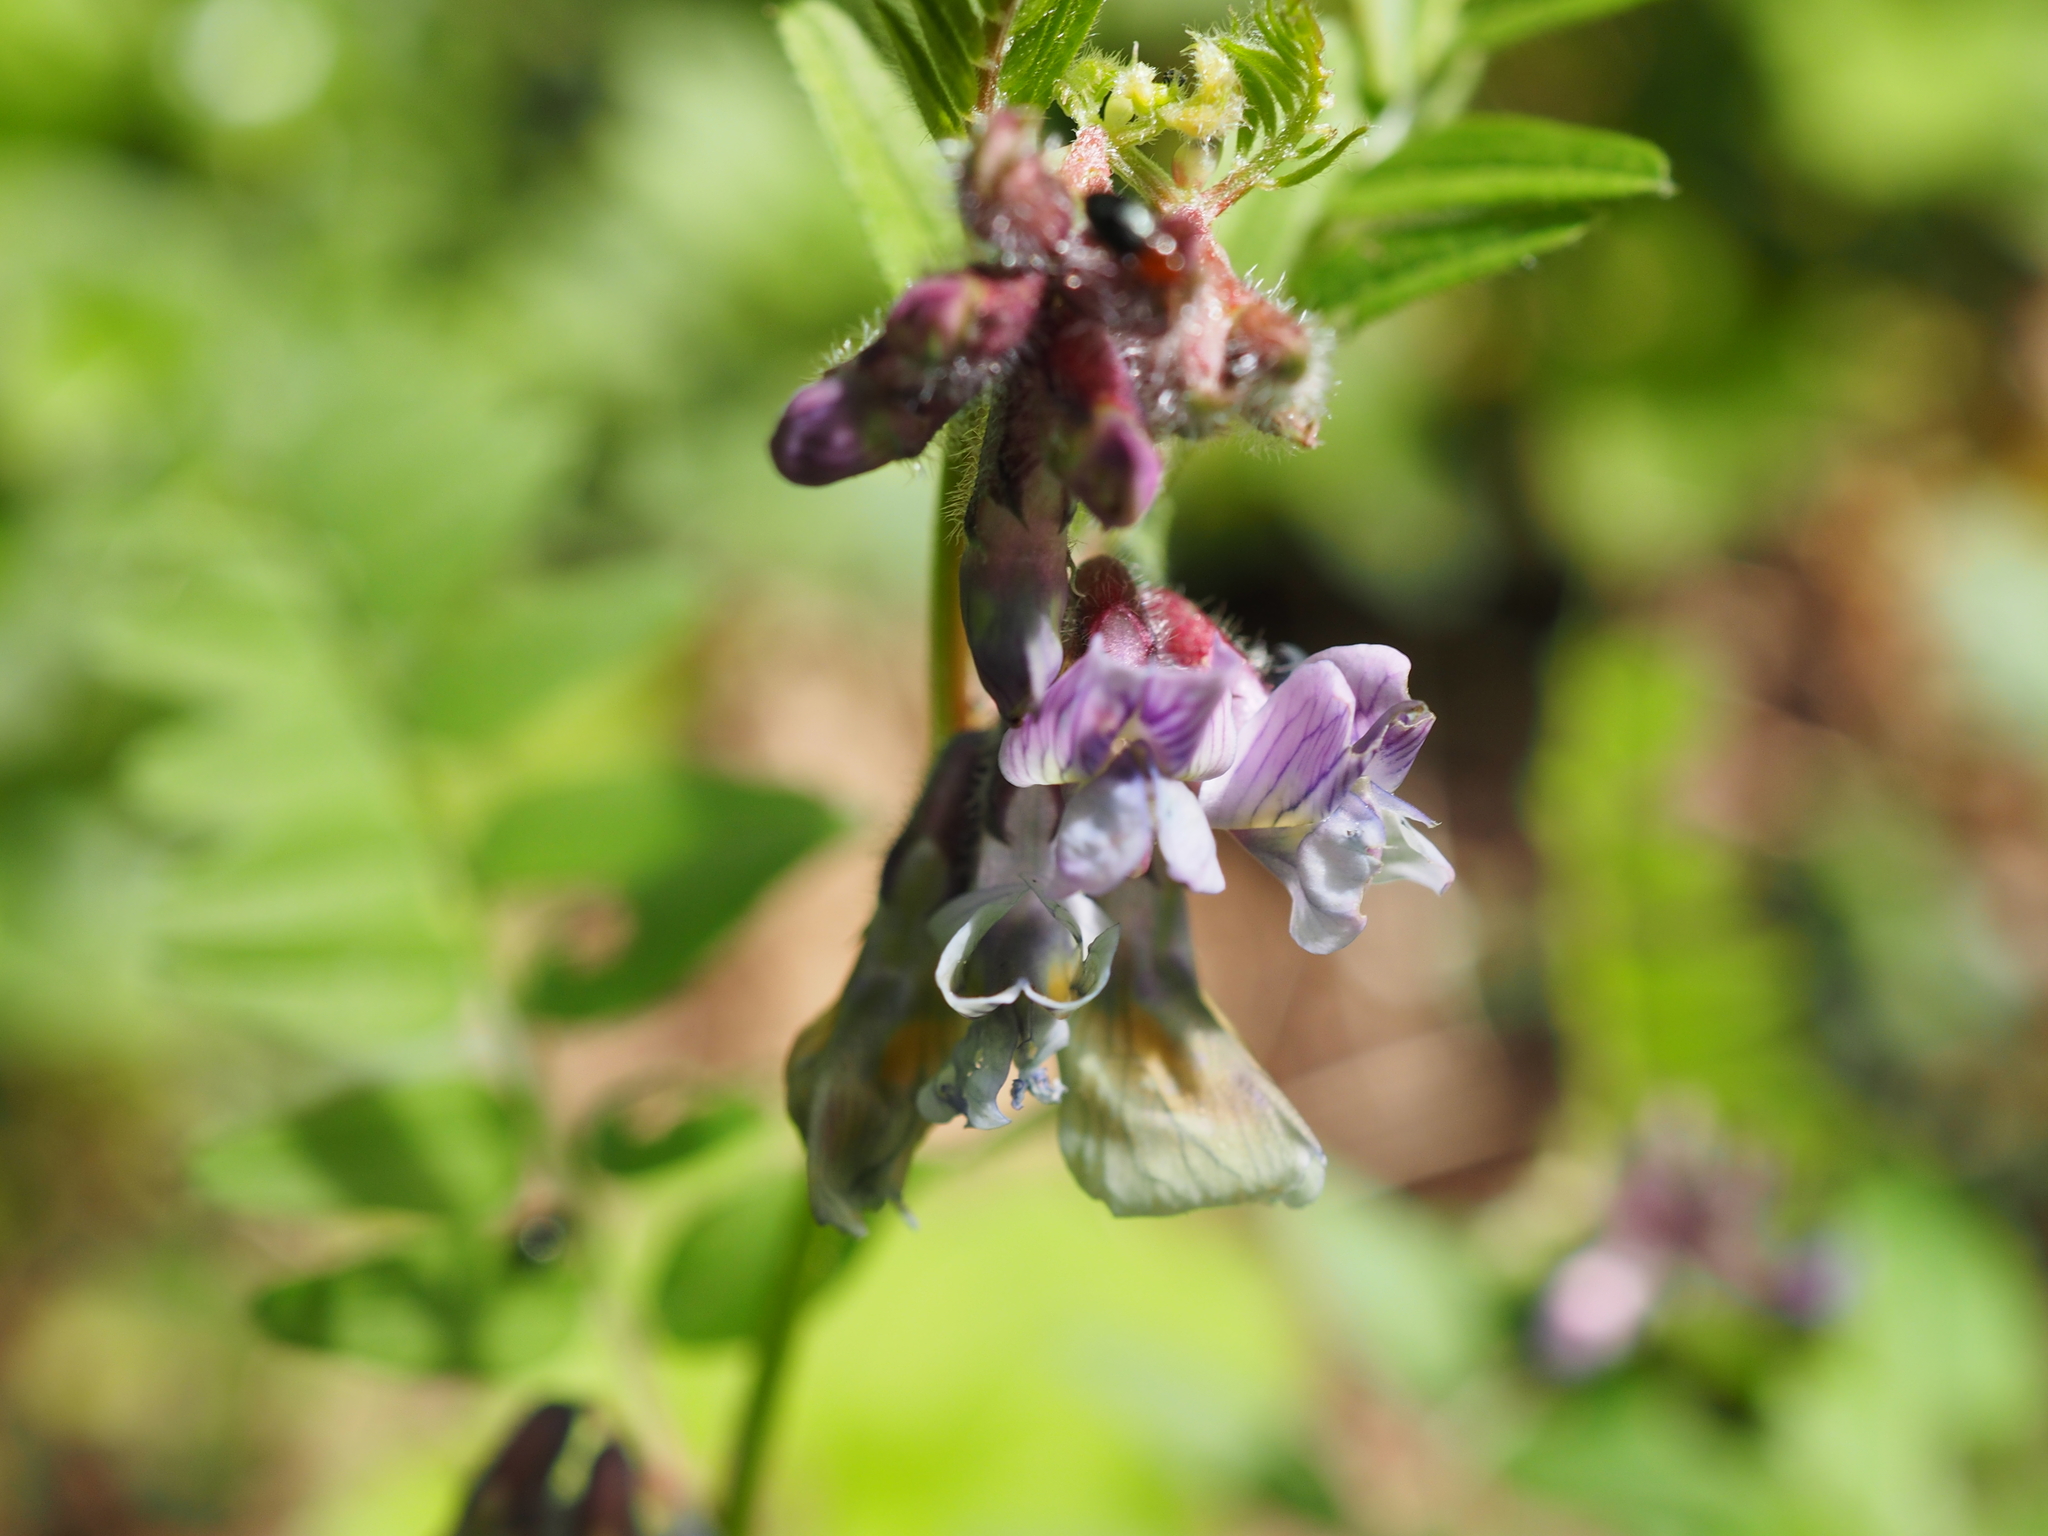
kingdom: Plantae
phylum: Tracheophyta
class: Magnoliopsida
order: Fabales
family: Fabaceae
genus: Vicia
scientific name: Vicia sepium
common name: Bush vetch
